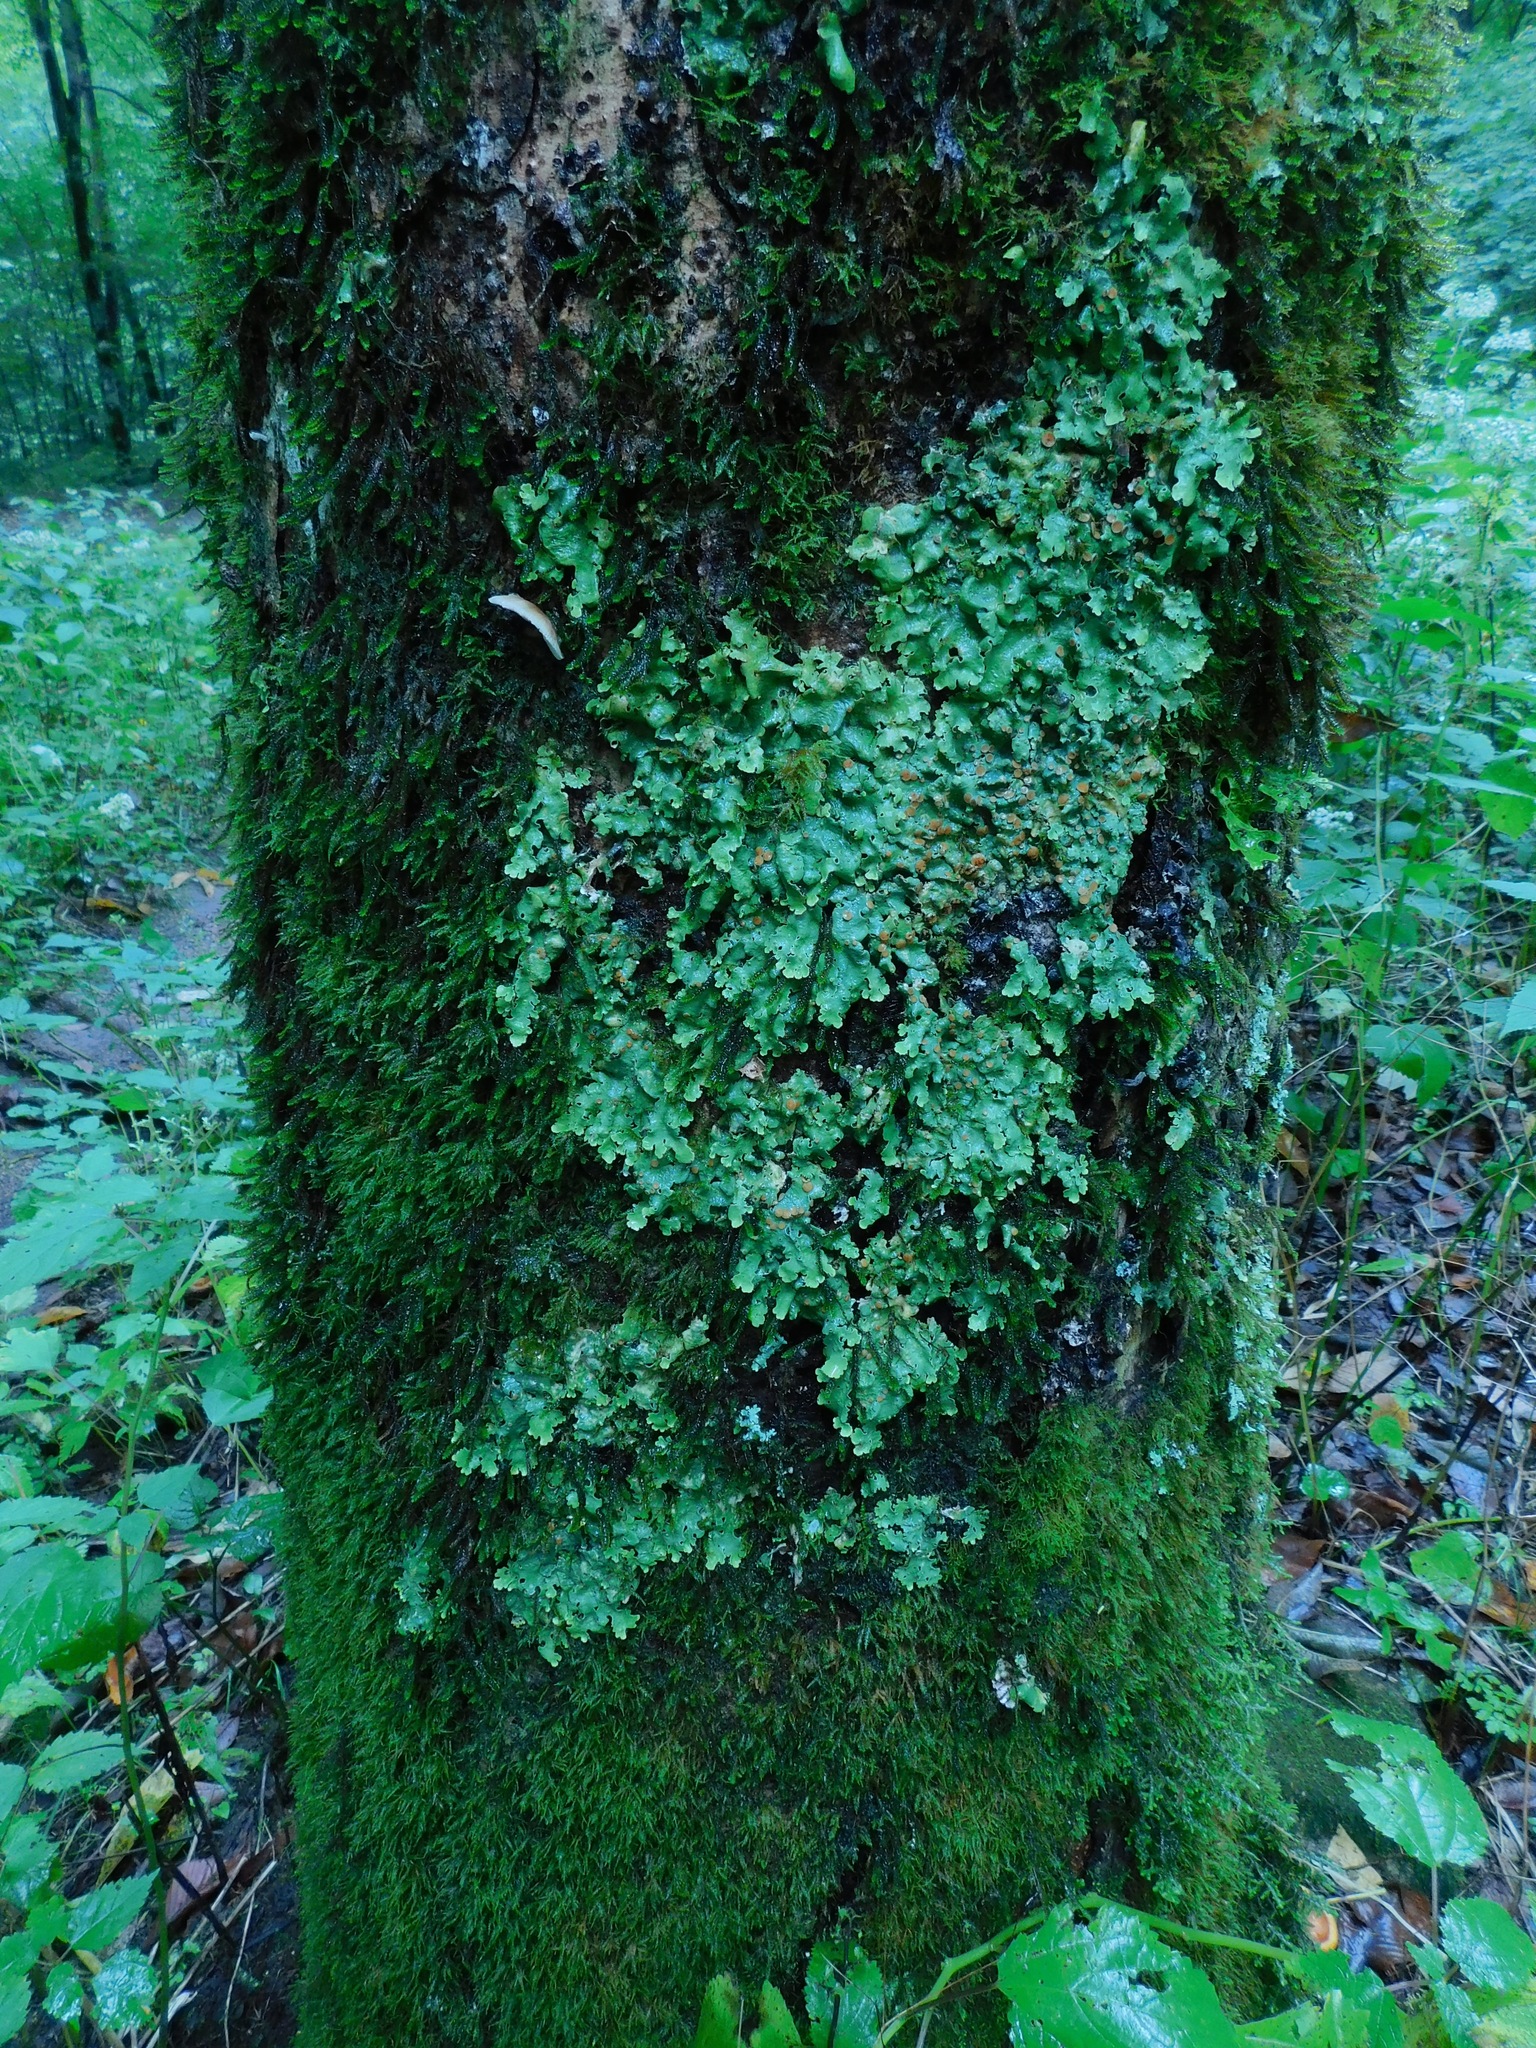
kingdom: Fungi
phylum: Ascomycota
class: Lecanoromycetes
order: Peltigerales
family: Lobariaceae
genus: Ricasolia
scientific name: Ricasolia quercizans
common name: Smooth lungwort
